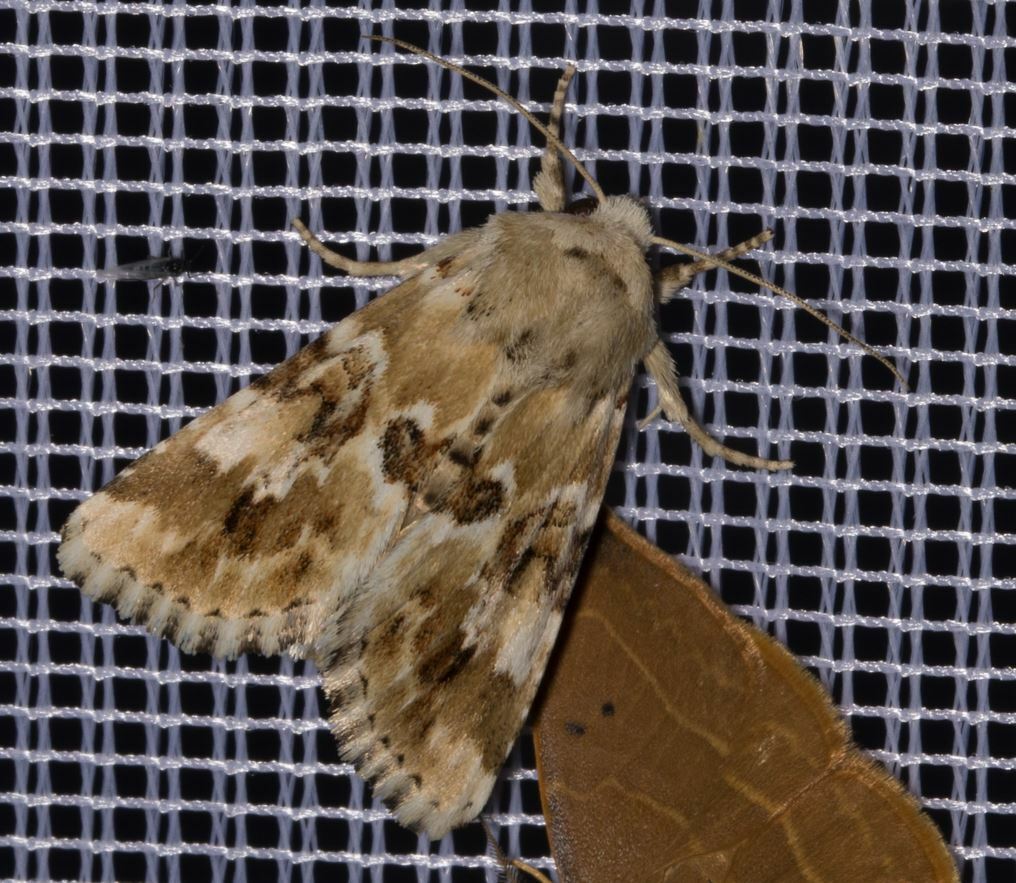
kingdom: Animalia
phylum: Arthropoda
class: Insecta
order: Lepidoptera
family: Noctuidae
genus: Eremobia
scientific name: Eremobia ochroleuca
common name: Dusky sallow
